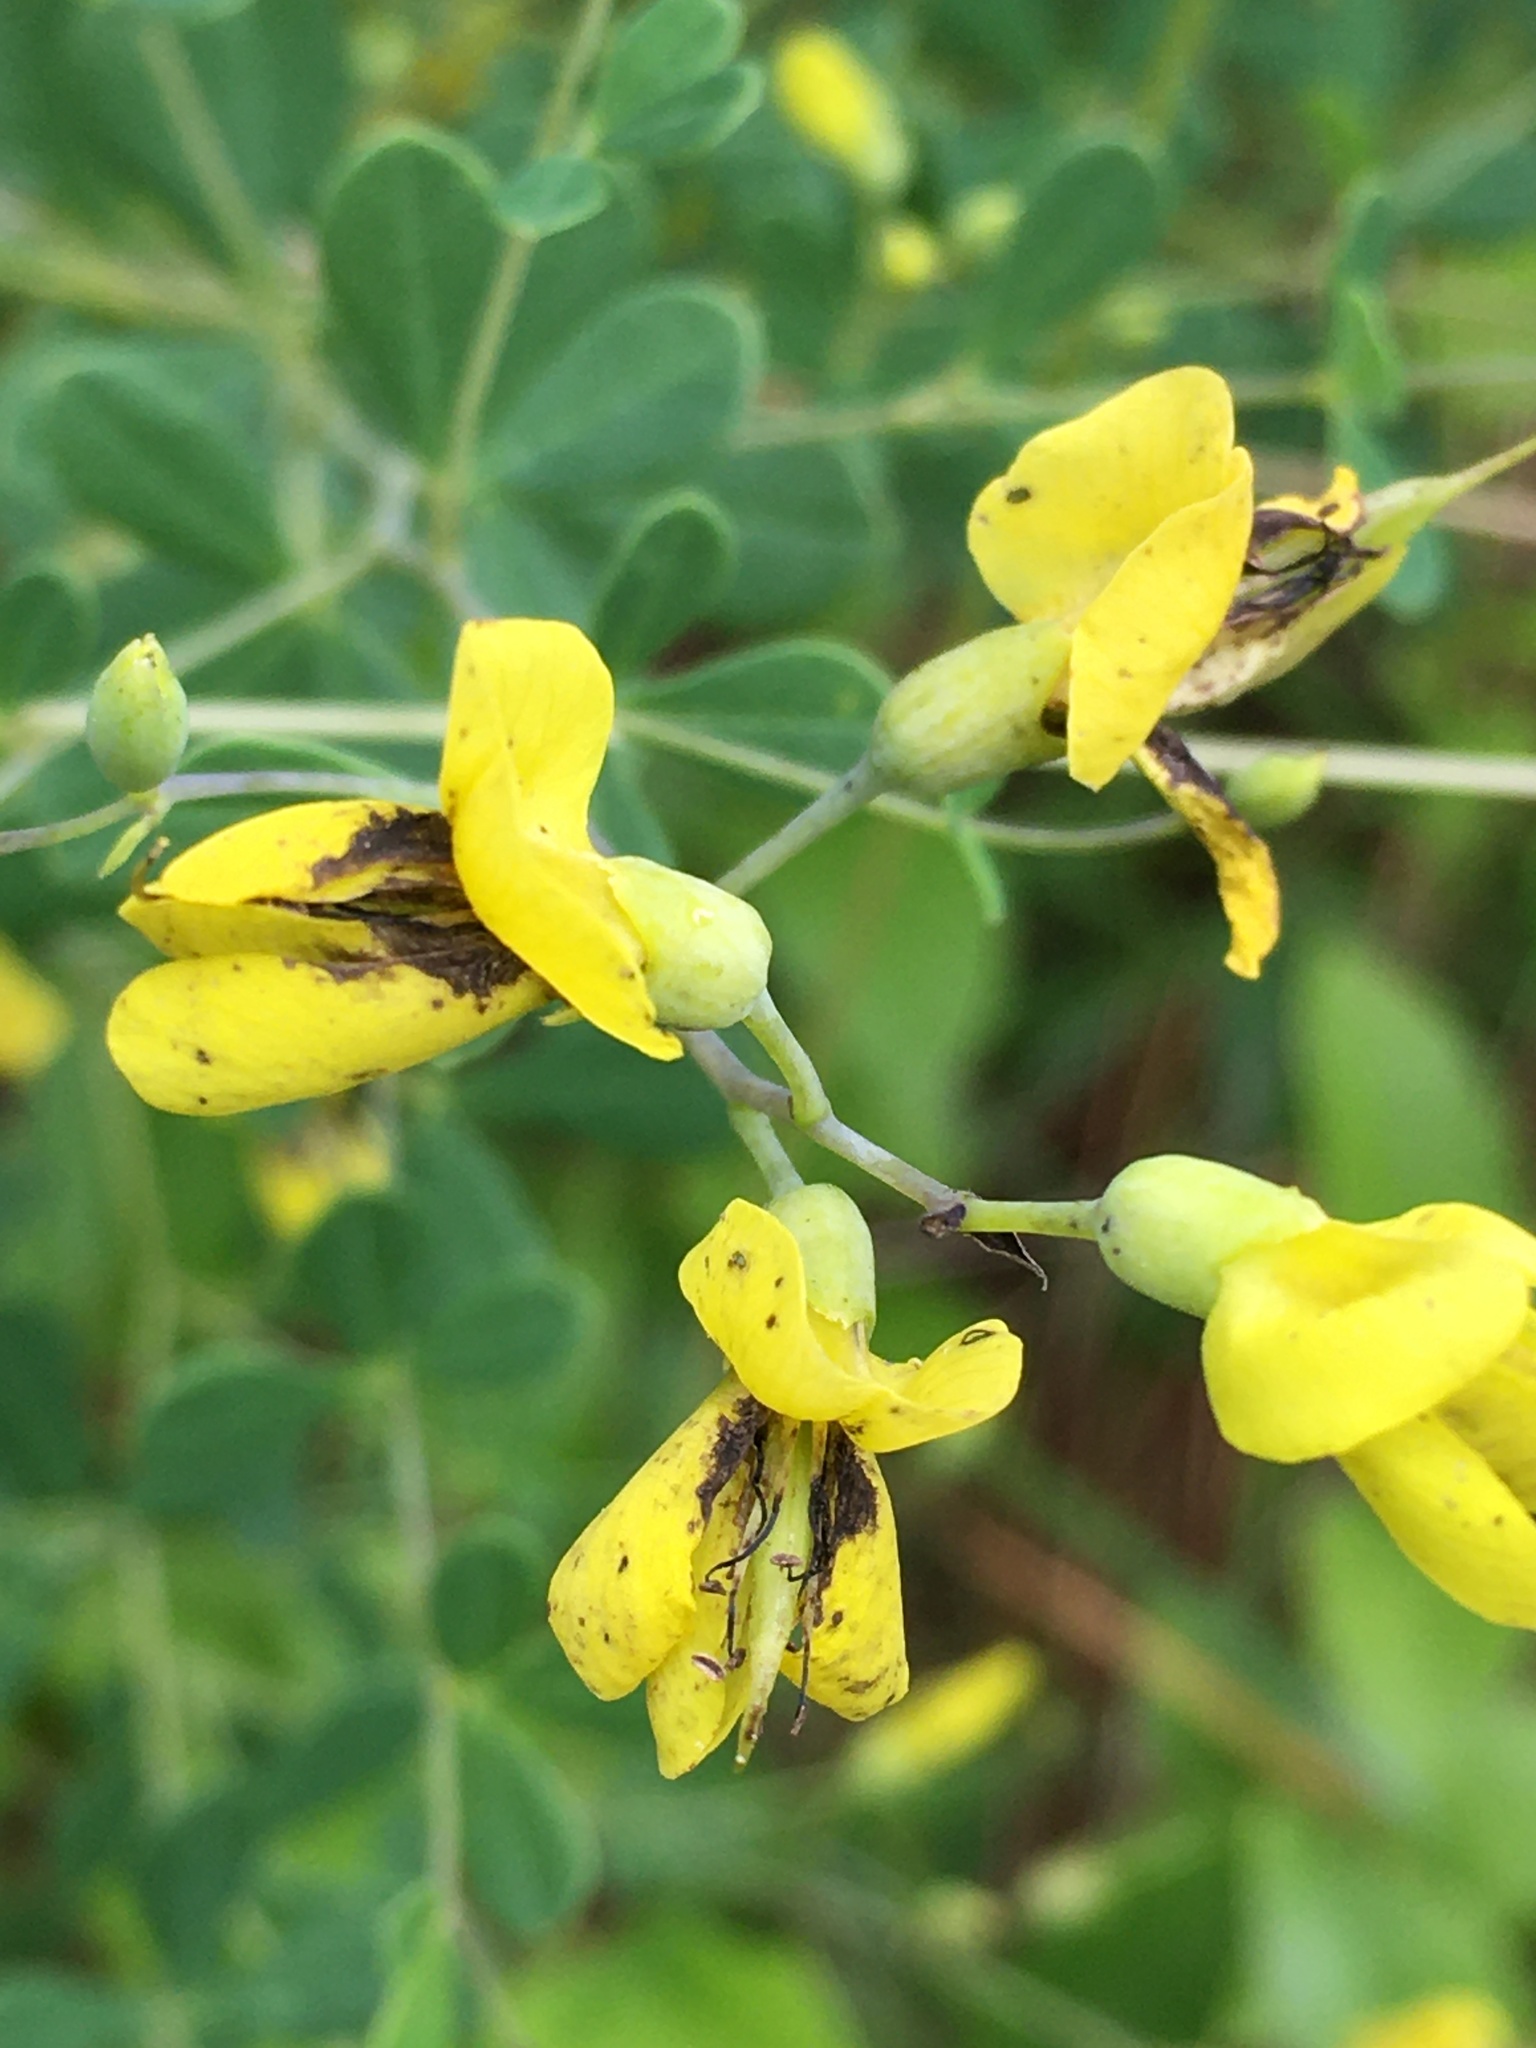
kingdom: Plantae
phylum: Tracheophyta
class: Magnoliopsida
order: Fabales
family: Fabaceae
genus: Baptisia
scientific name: Baptisia tinctoria
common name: Wild indigo
